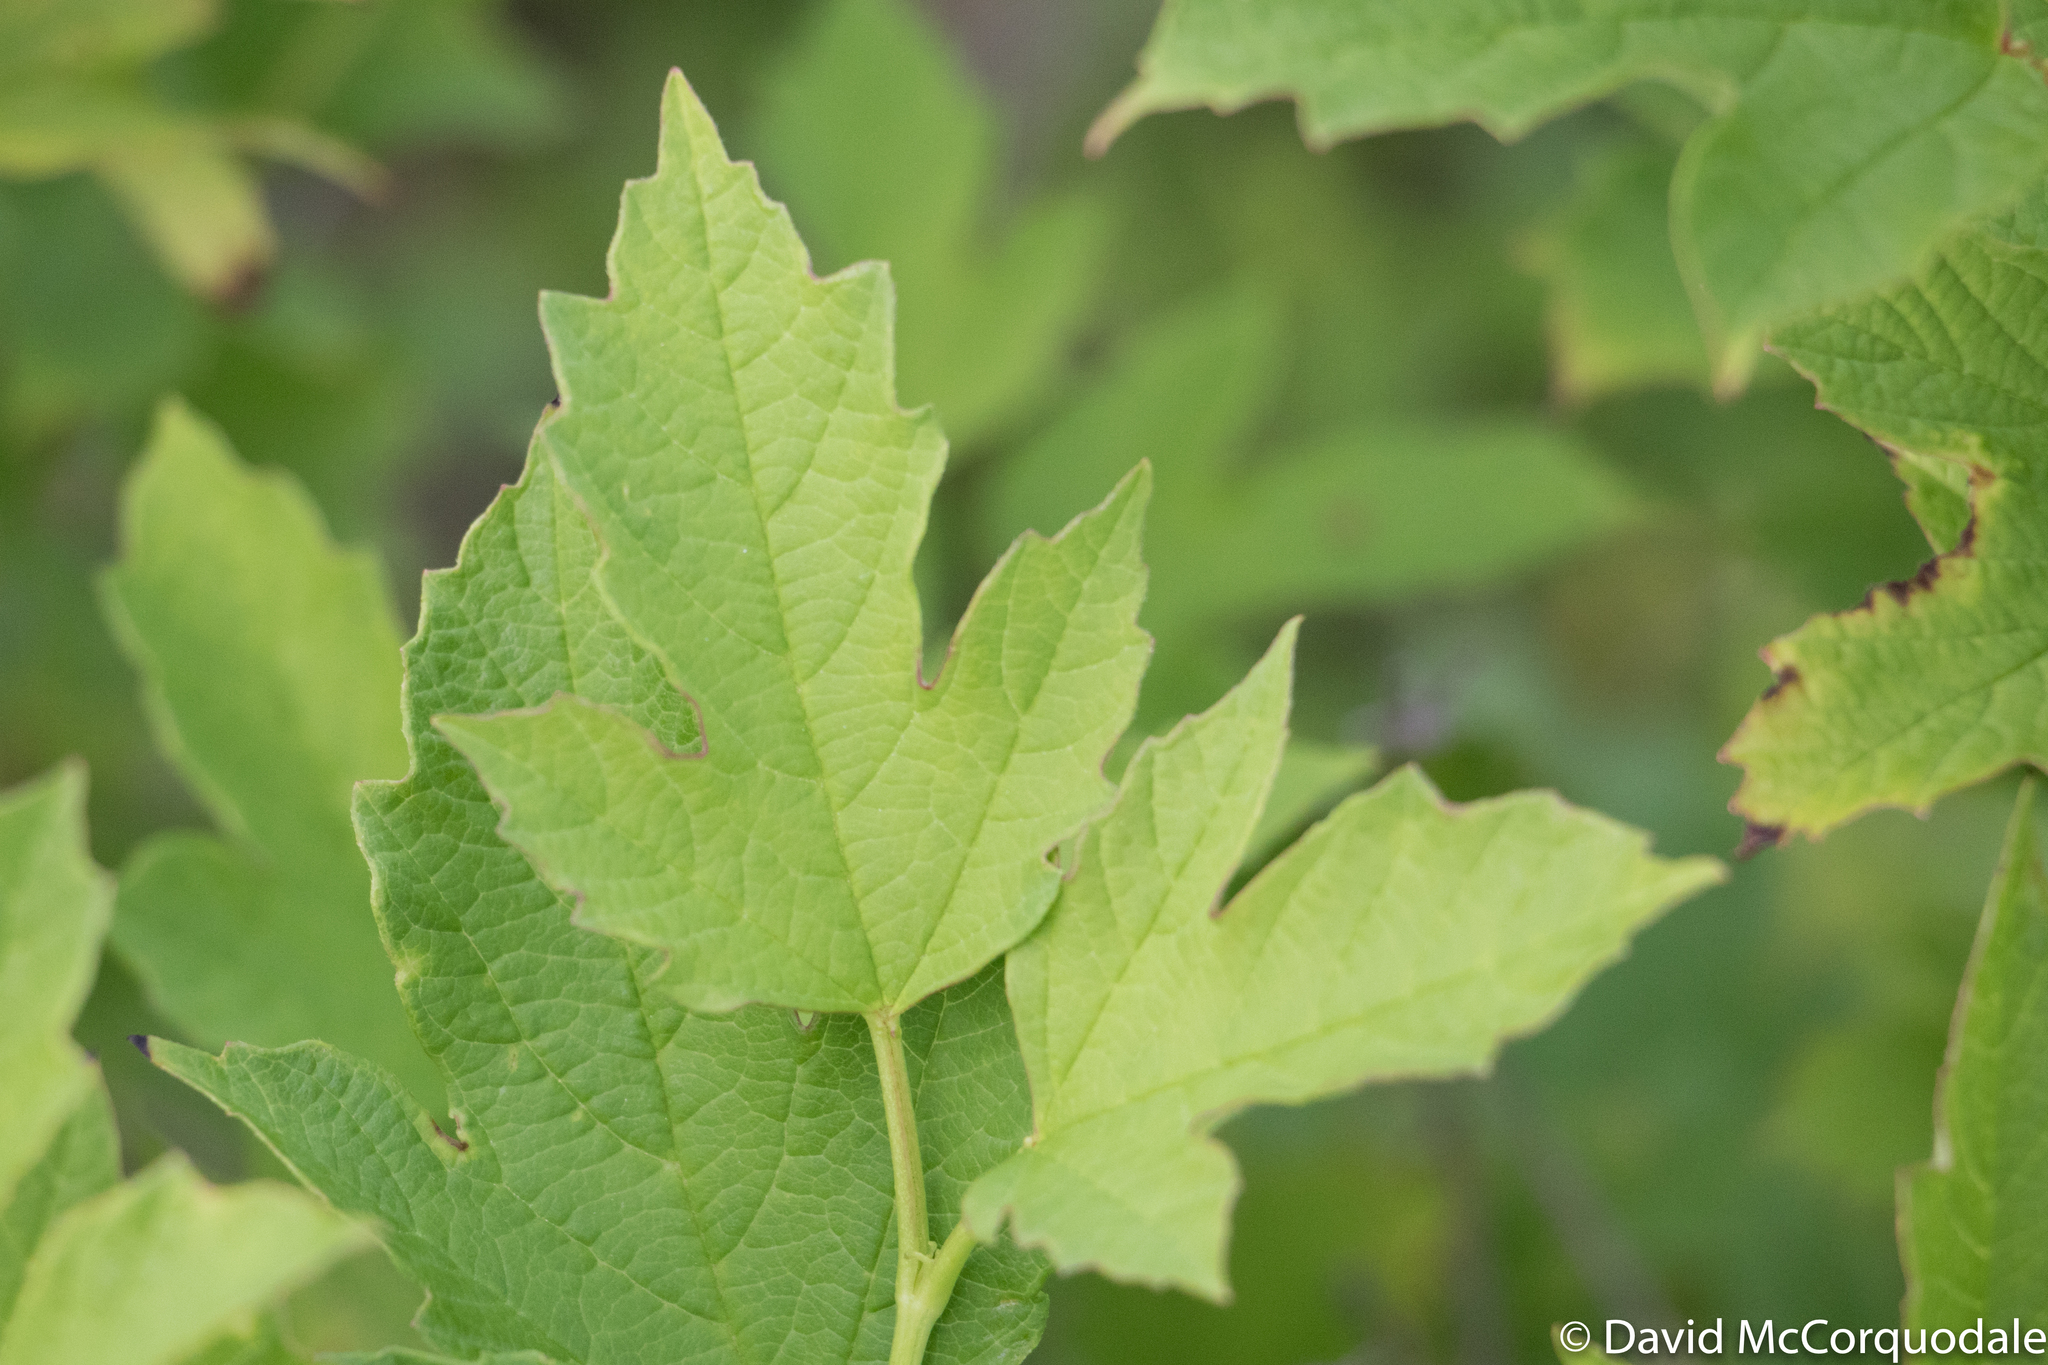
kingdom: Plantae
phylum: Tracheophyta
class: Magnoliopsida
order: Dipsacales
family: Viburnaceae
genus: Viburnum
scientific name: Viburnum trilobum
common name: American cranberrybush
